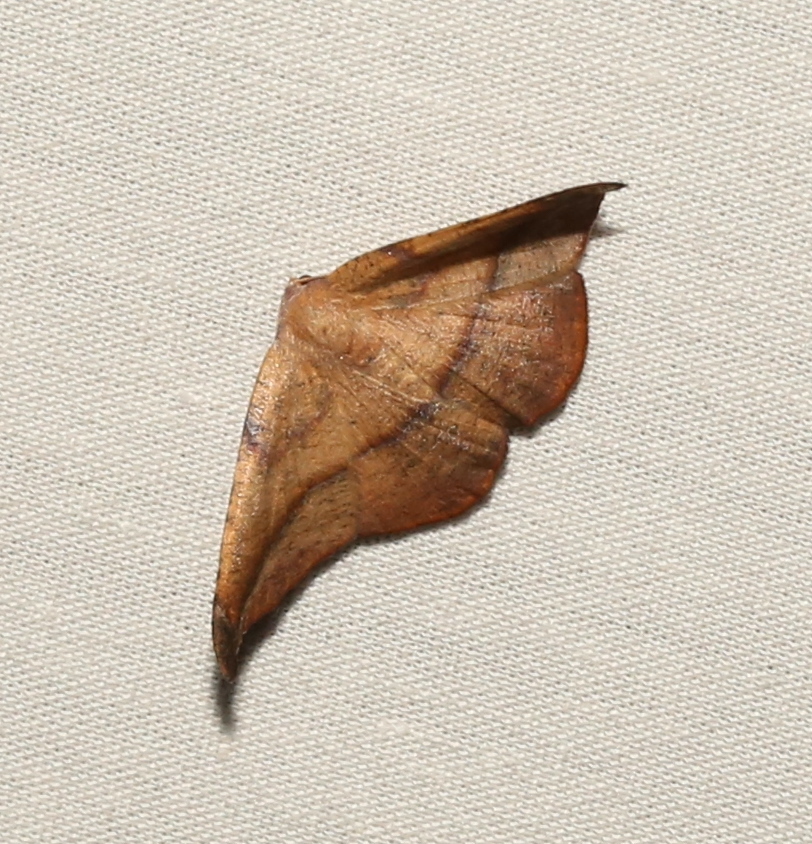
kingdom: Animalia
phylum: Arthropoda
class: Insecta
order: Lepidoptera
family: Geometridae
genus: Patalene
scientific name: Patalene olyzonaria
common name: Juniper geometer moth
